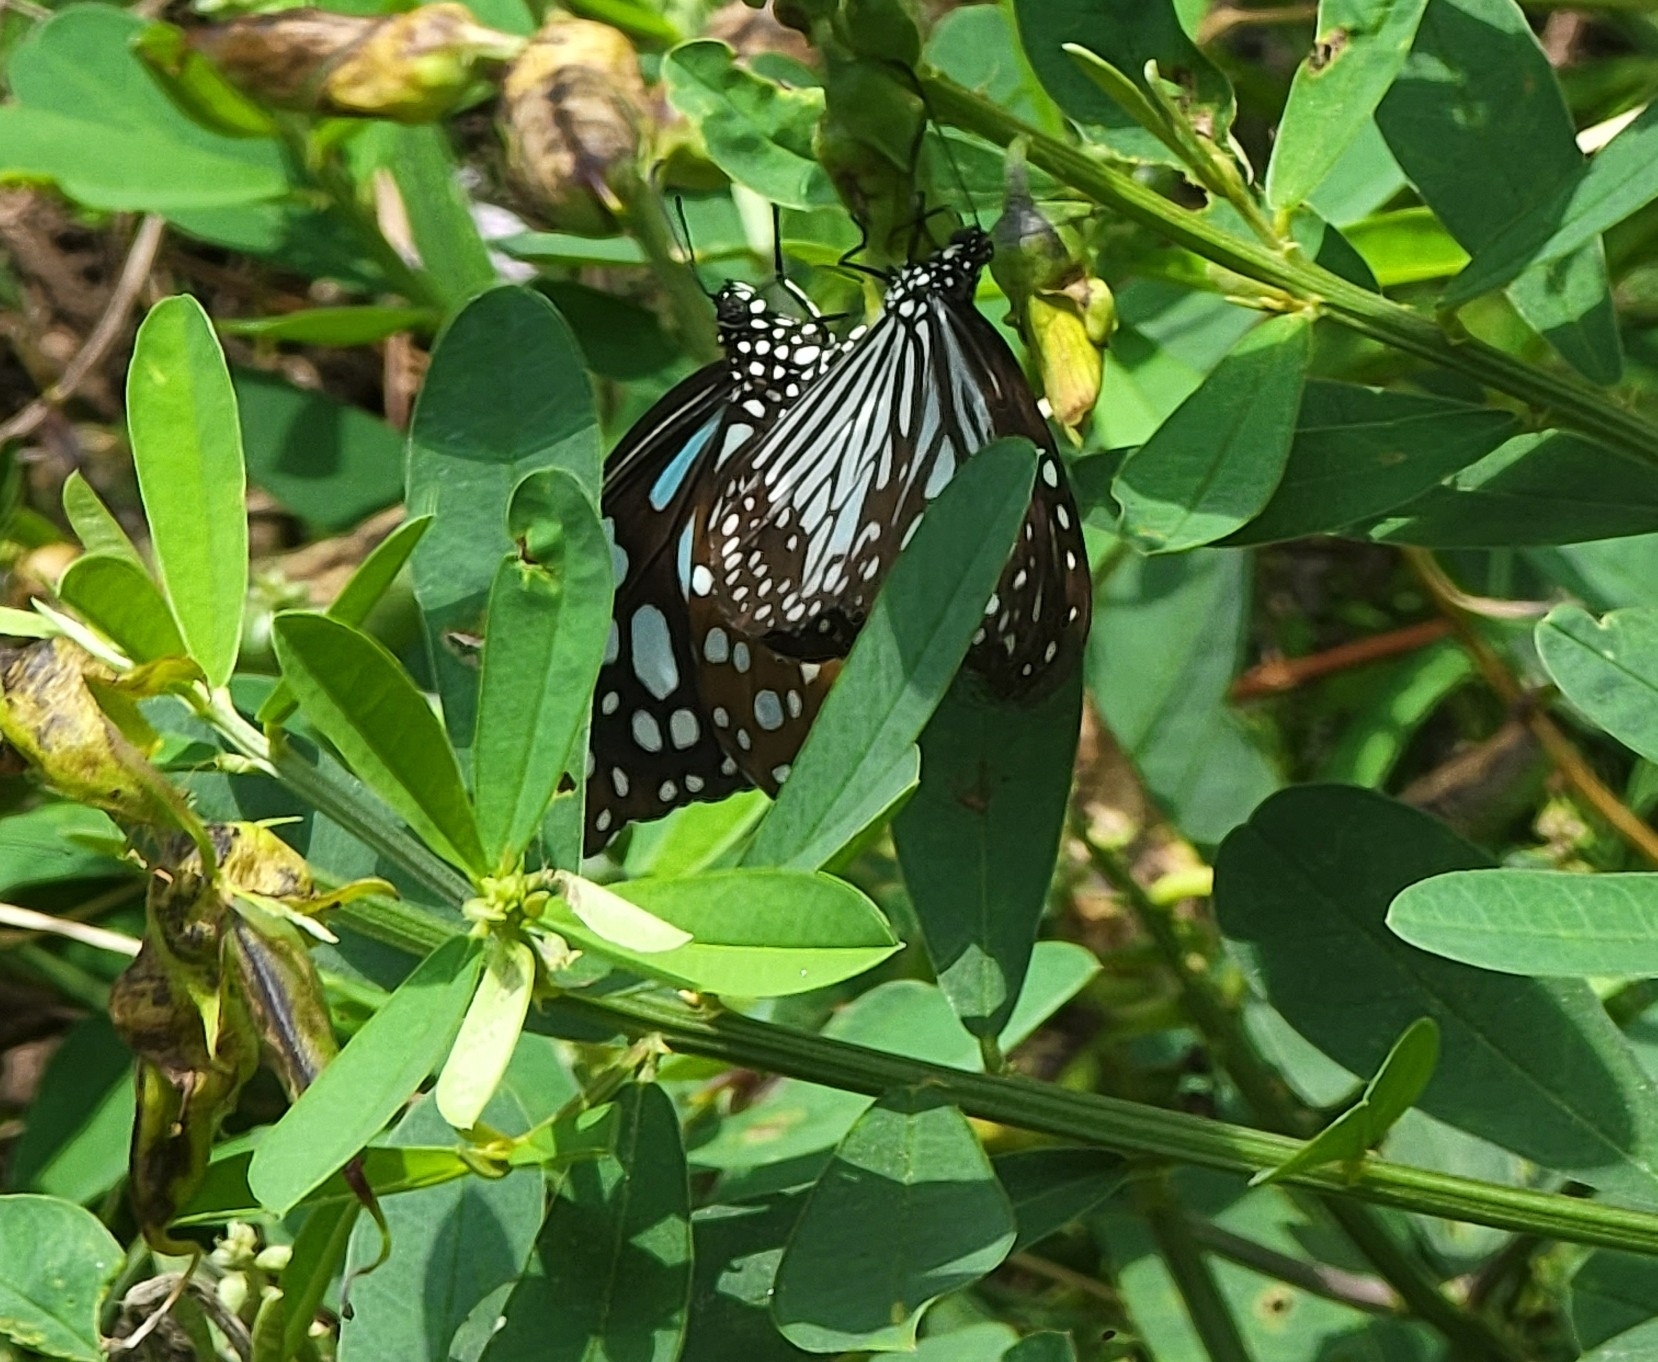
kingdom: Animalia
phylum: Arthropoda
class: Insecta
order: Lepidoptera
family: Nymphalidae
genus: Parantica
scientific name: Parantica aglea
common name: Glassy tiger
